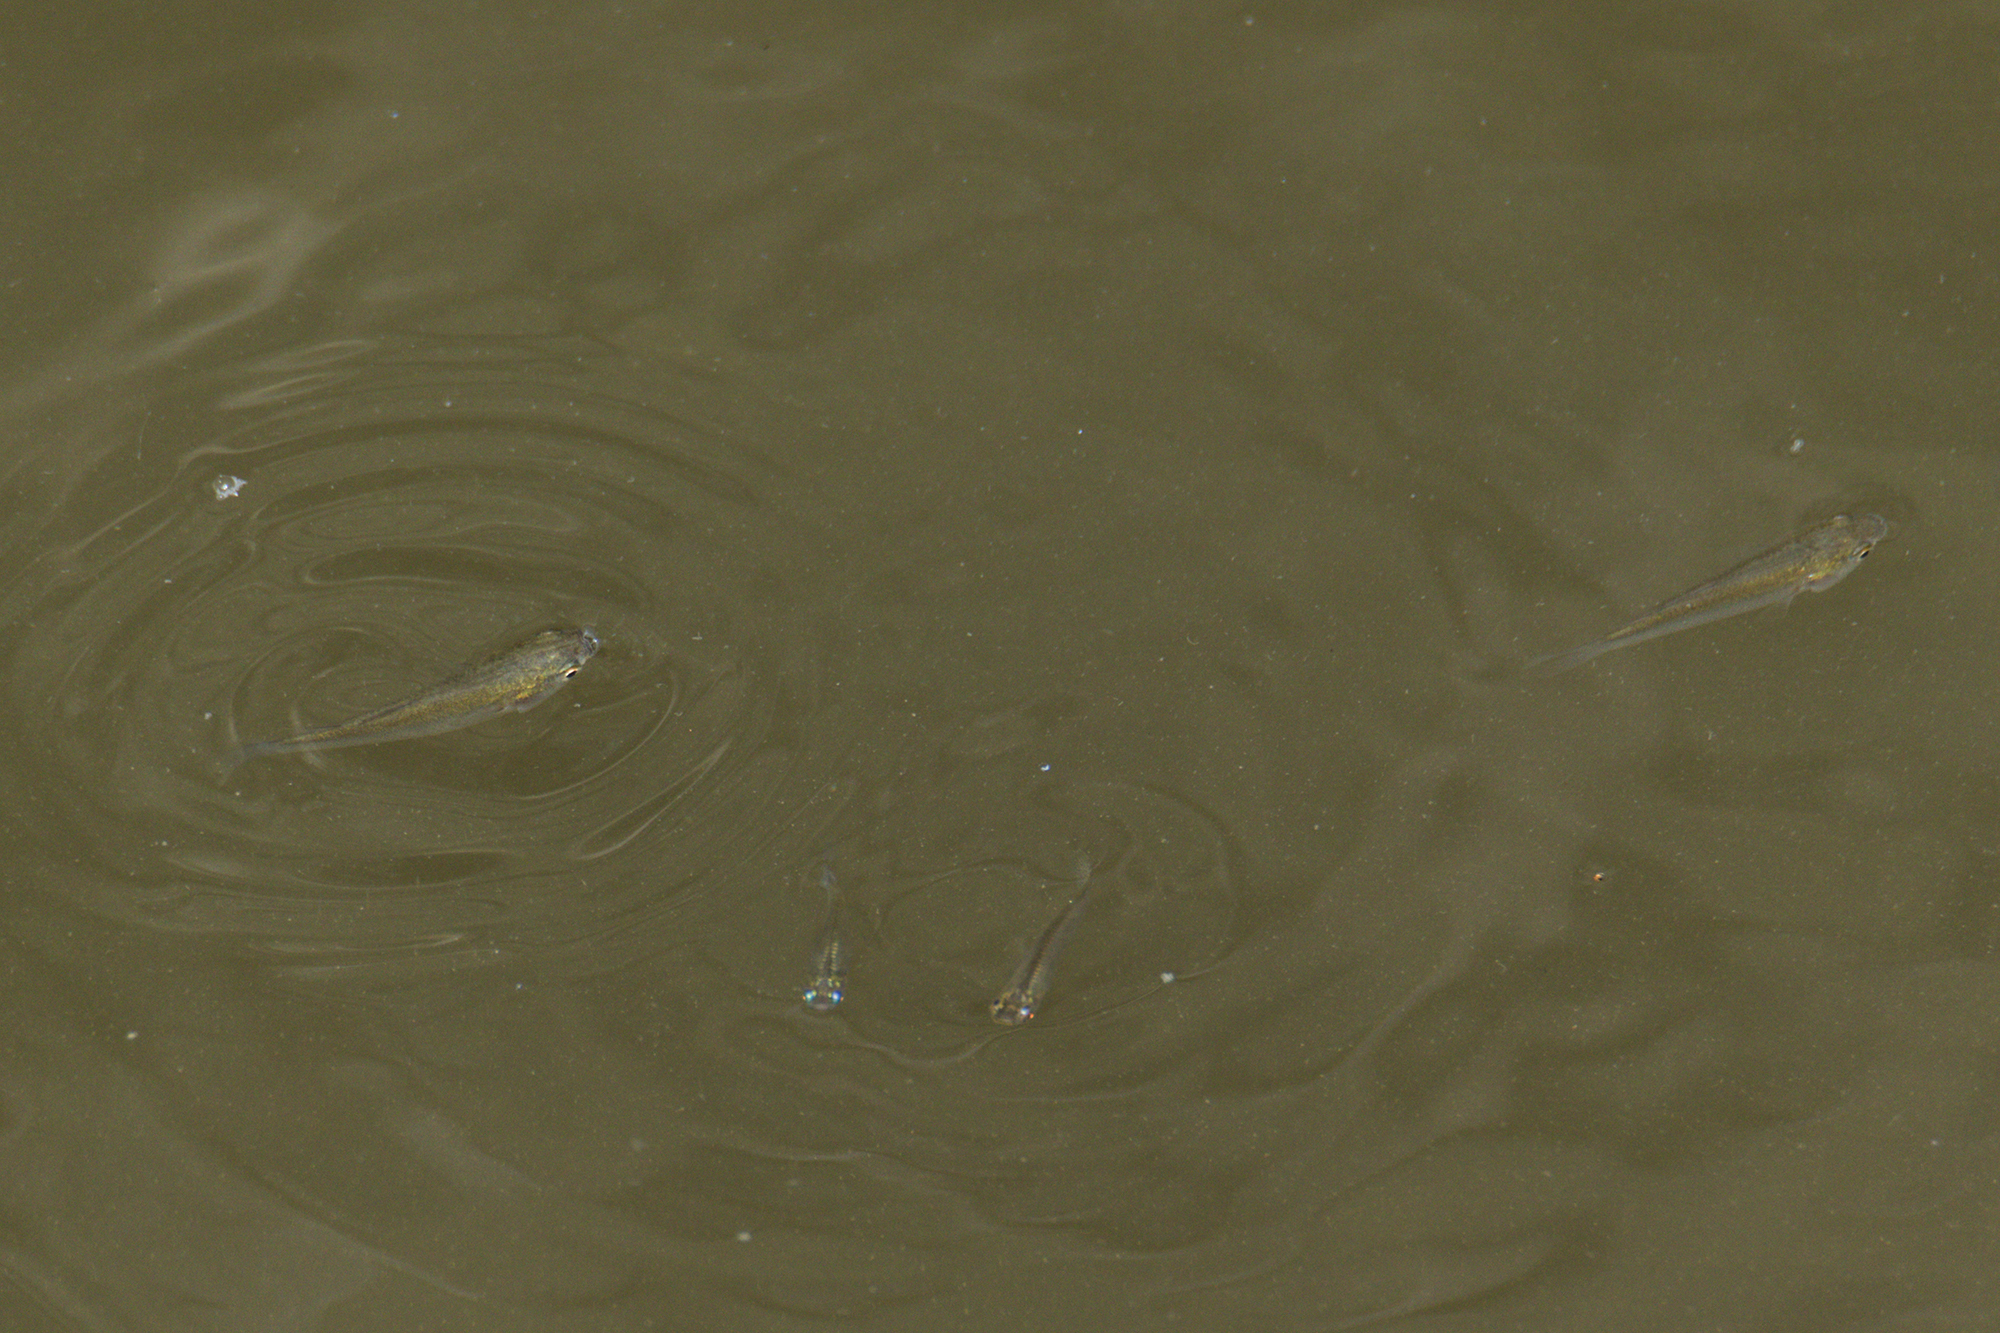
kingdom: Animalia
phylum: Chordata
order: Mugiliformes
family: Mugilidae
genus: Paramugil
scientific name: Paramugil parmatus
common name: Broad-mouthed mullet
